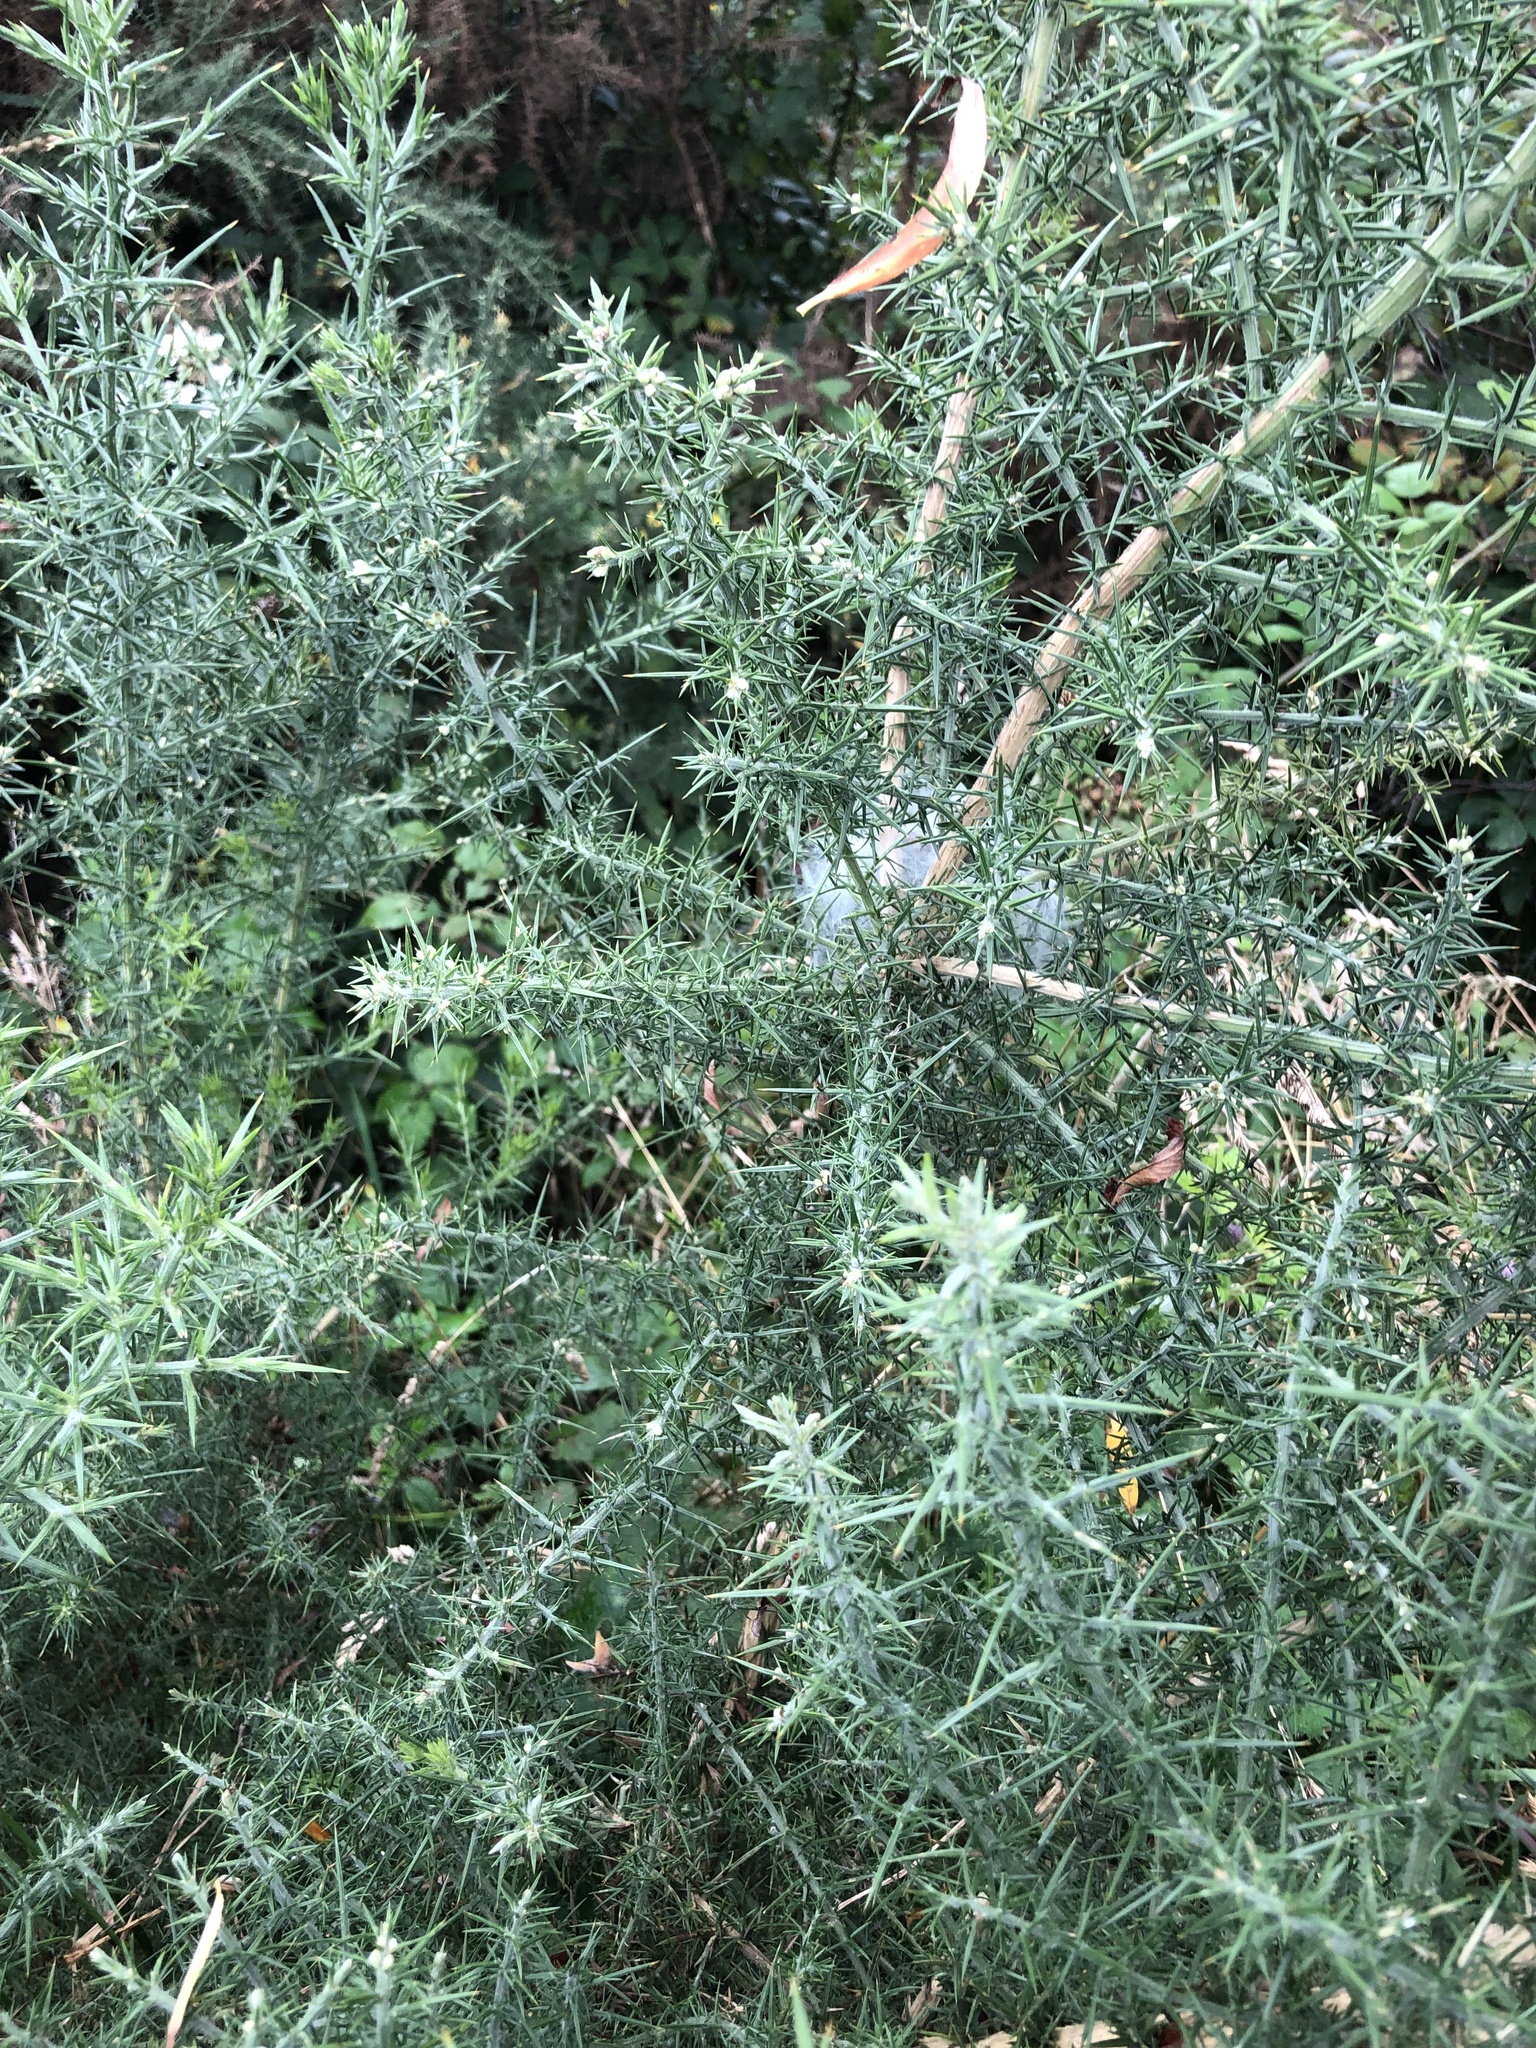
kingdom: Animalia
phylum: Arthropoda
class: Arachnida
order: Araneae
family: Pisauridae
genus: Dolomedes
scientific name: Dolomedes minor
